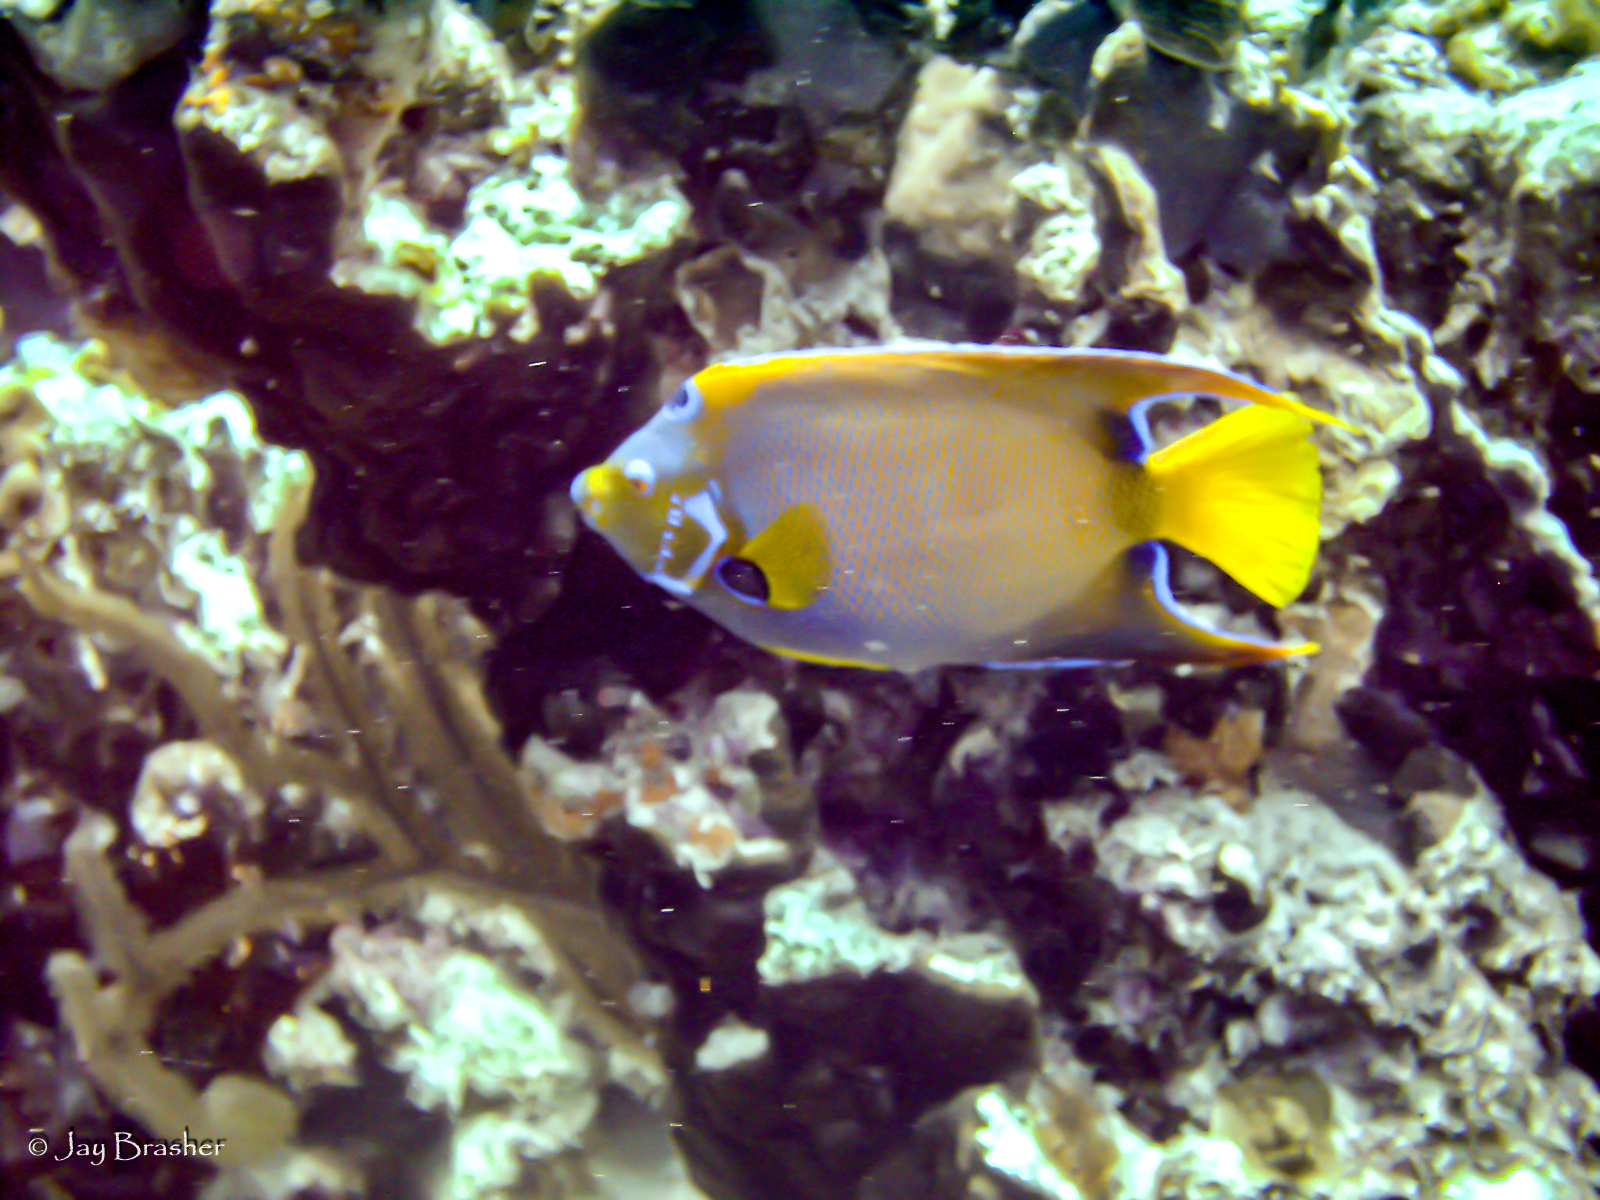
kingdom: Animalia
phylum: Chordata
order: Perciformes
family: Pomacanthidae
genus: Holacanthus
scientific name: Holacanthus ciliaris
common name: Queen angelfish
